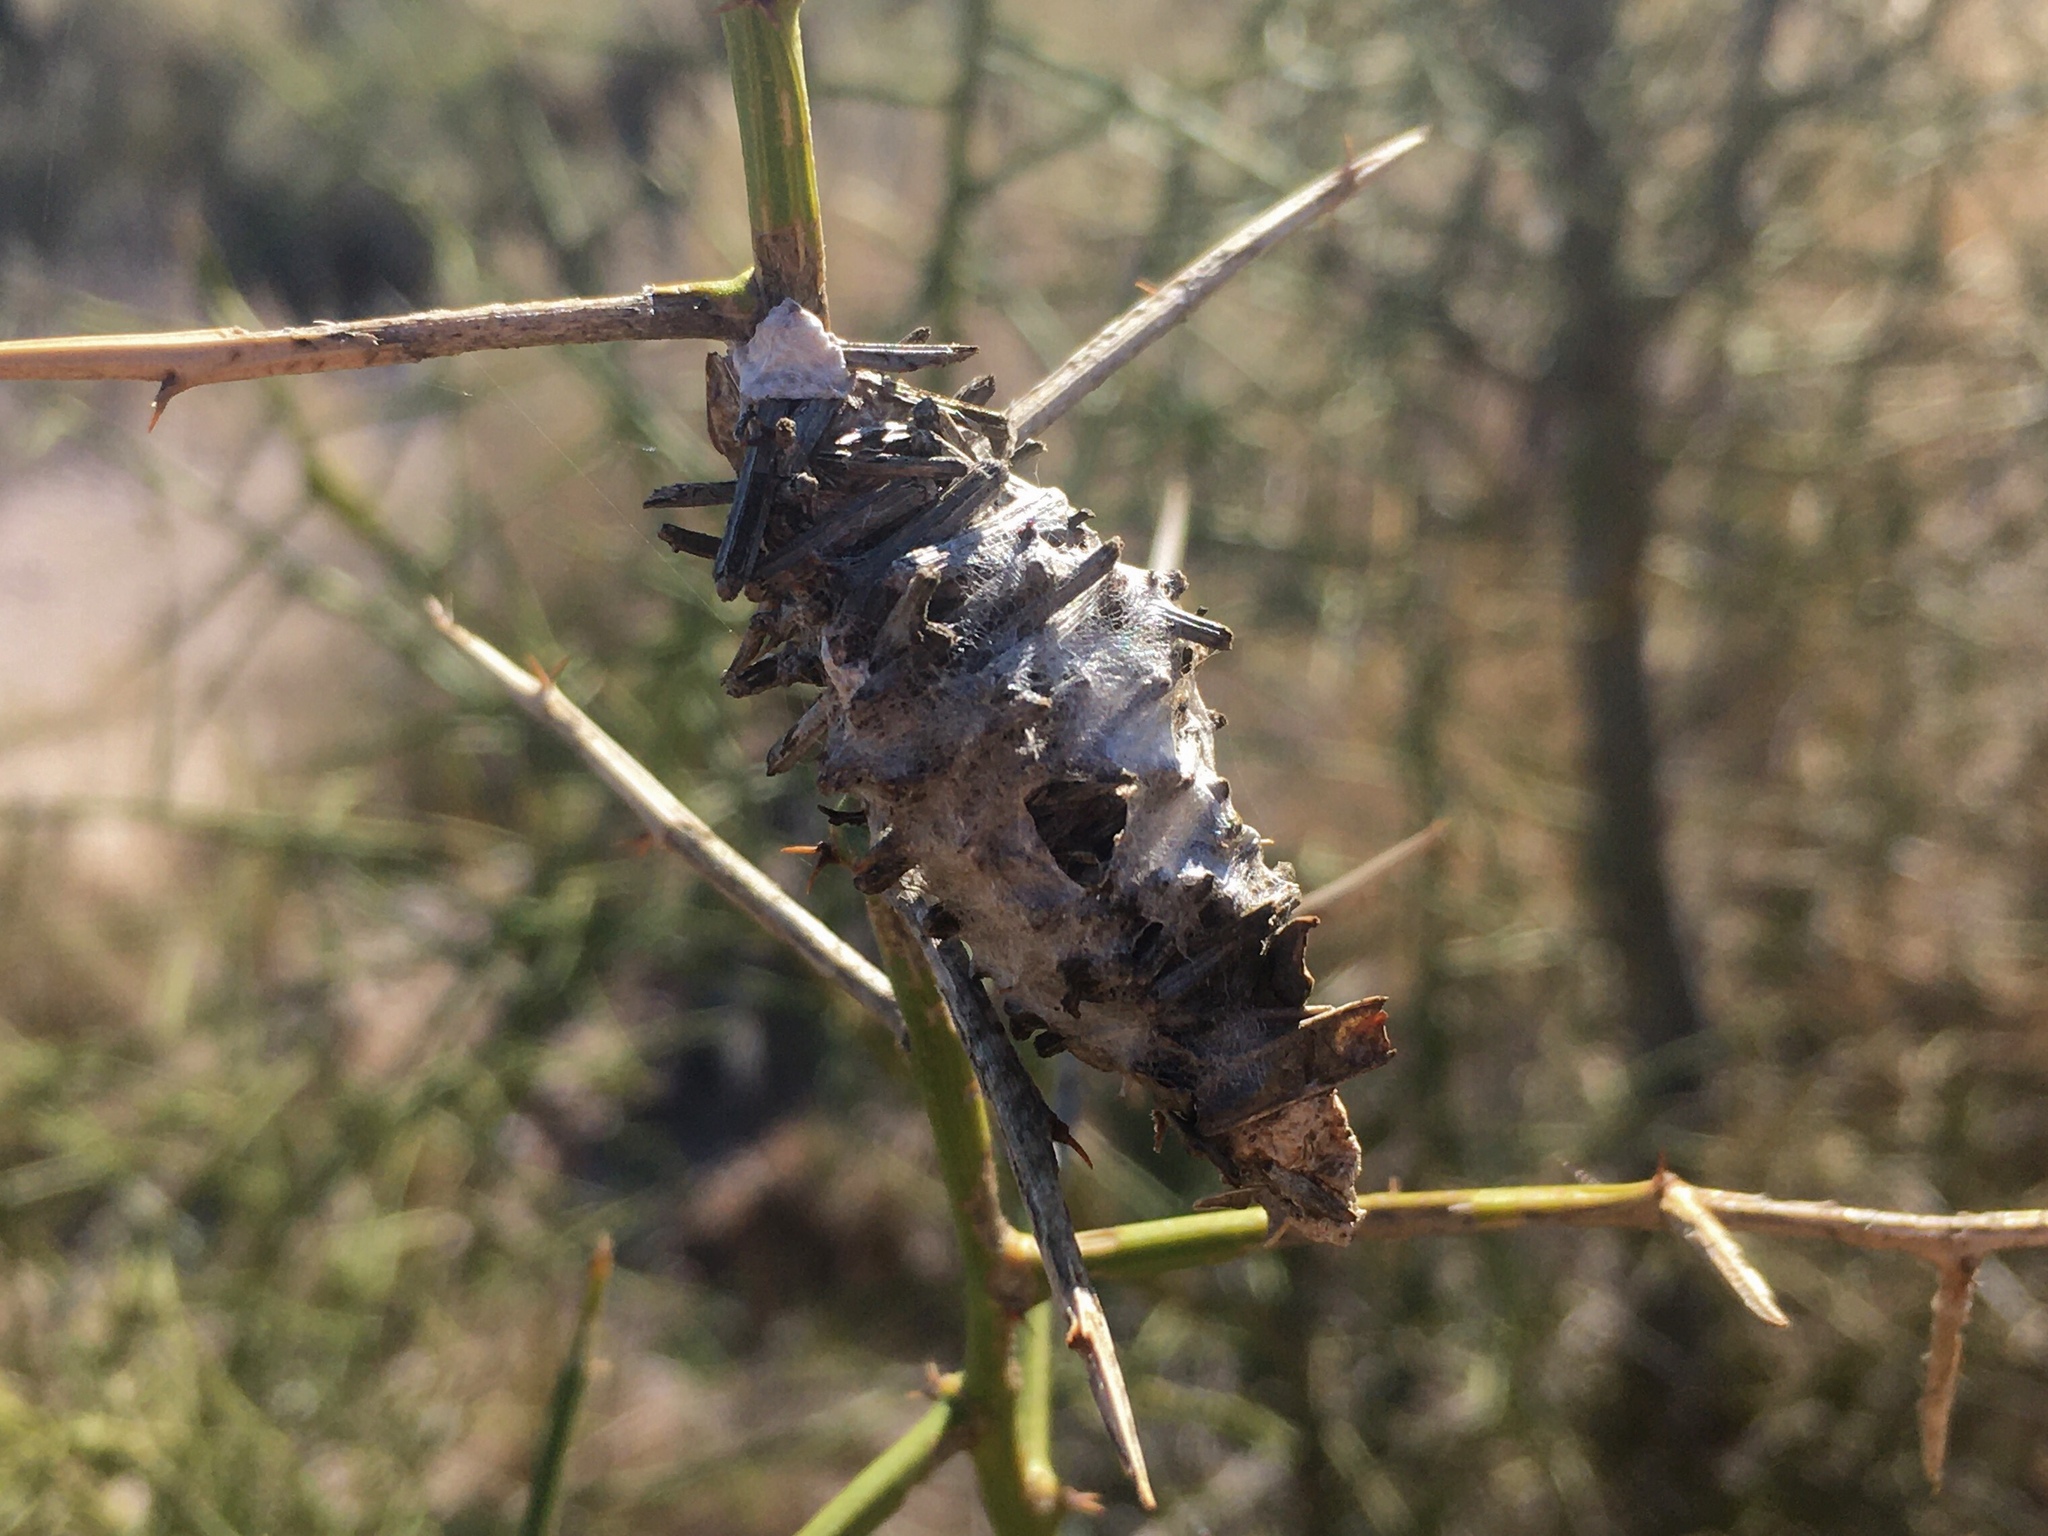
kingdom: Animalia
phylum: Arthropoda
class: Insecta
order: Lepidoptera
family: Psychidae
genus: Oiketicus
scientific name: Oiketicus
